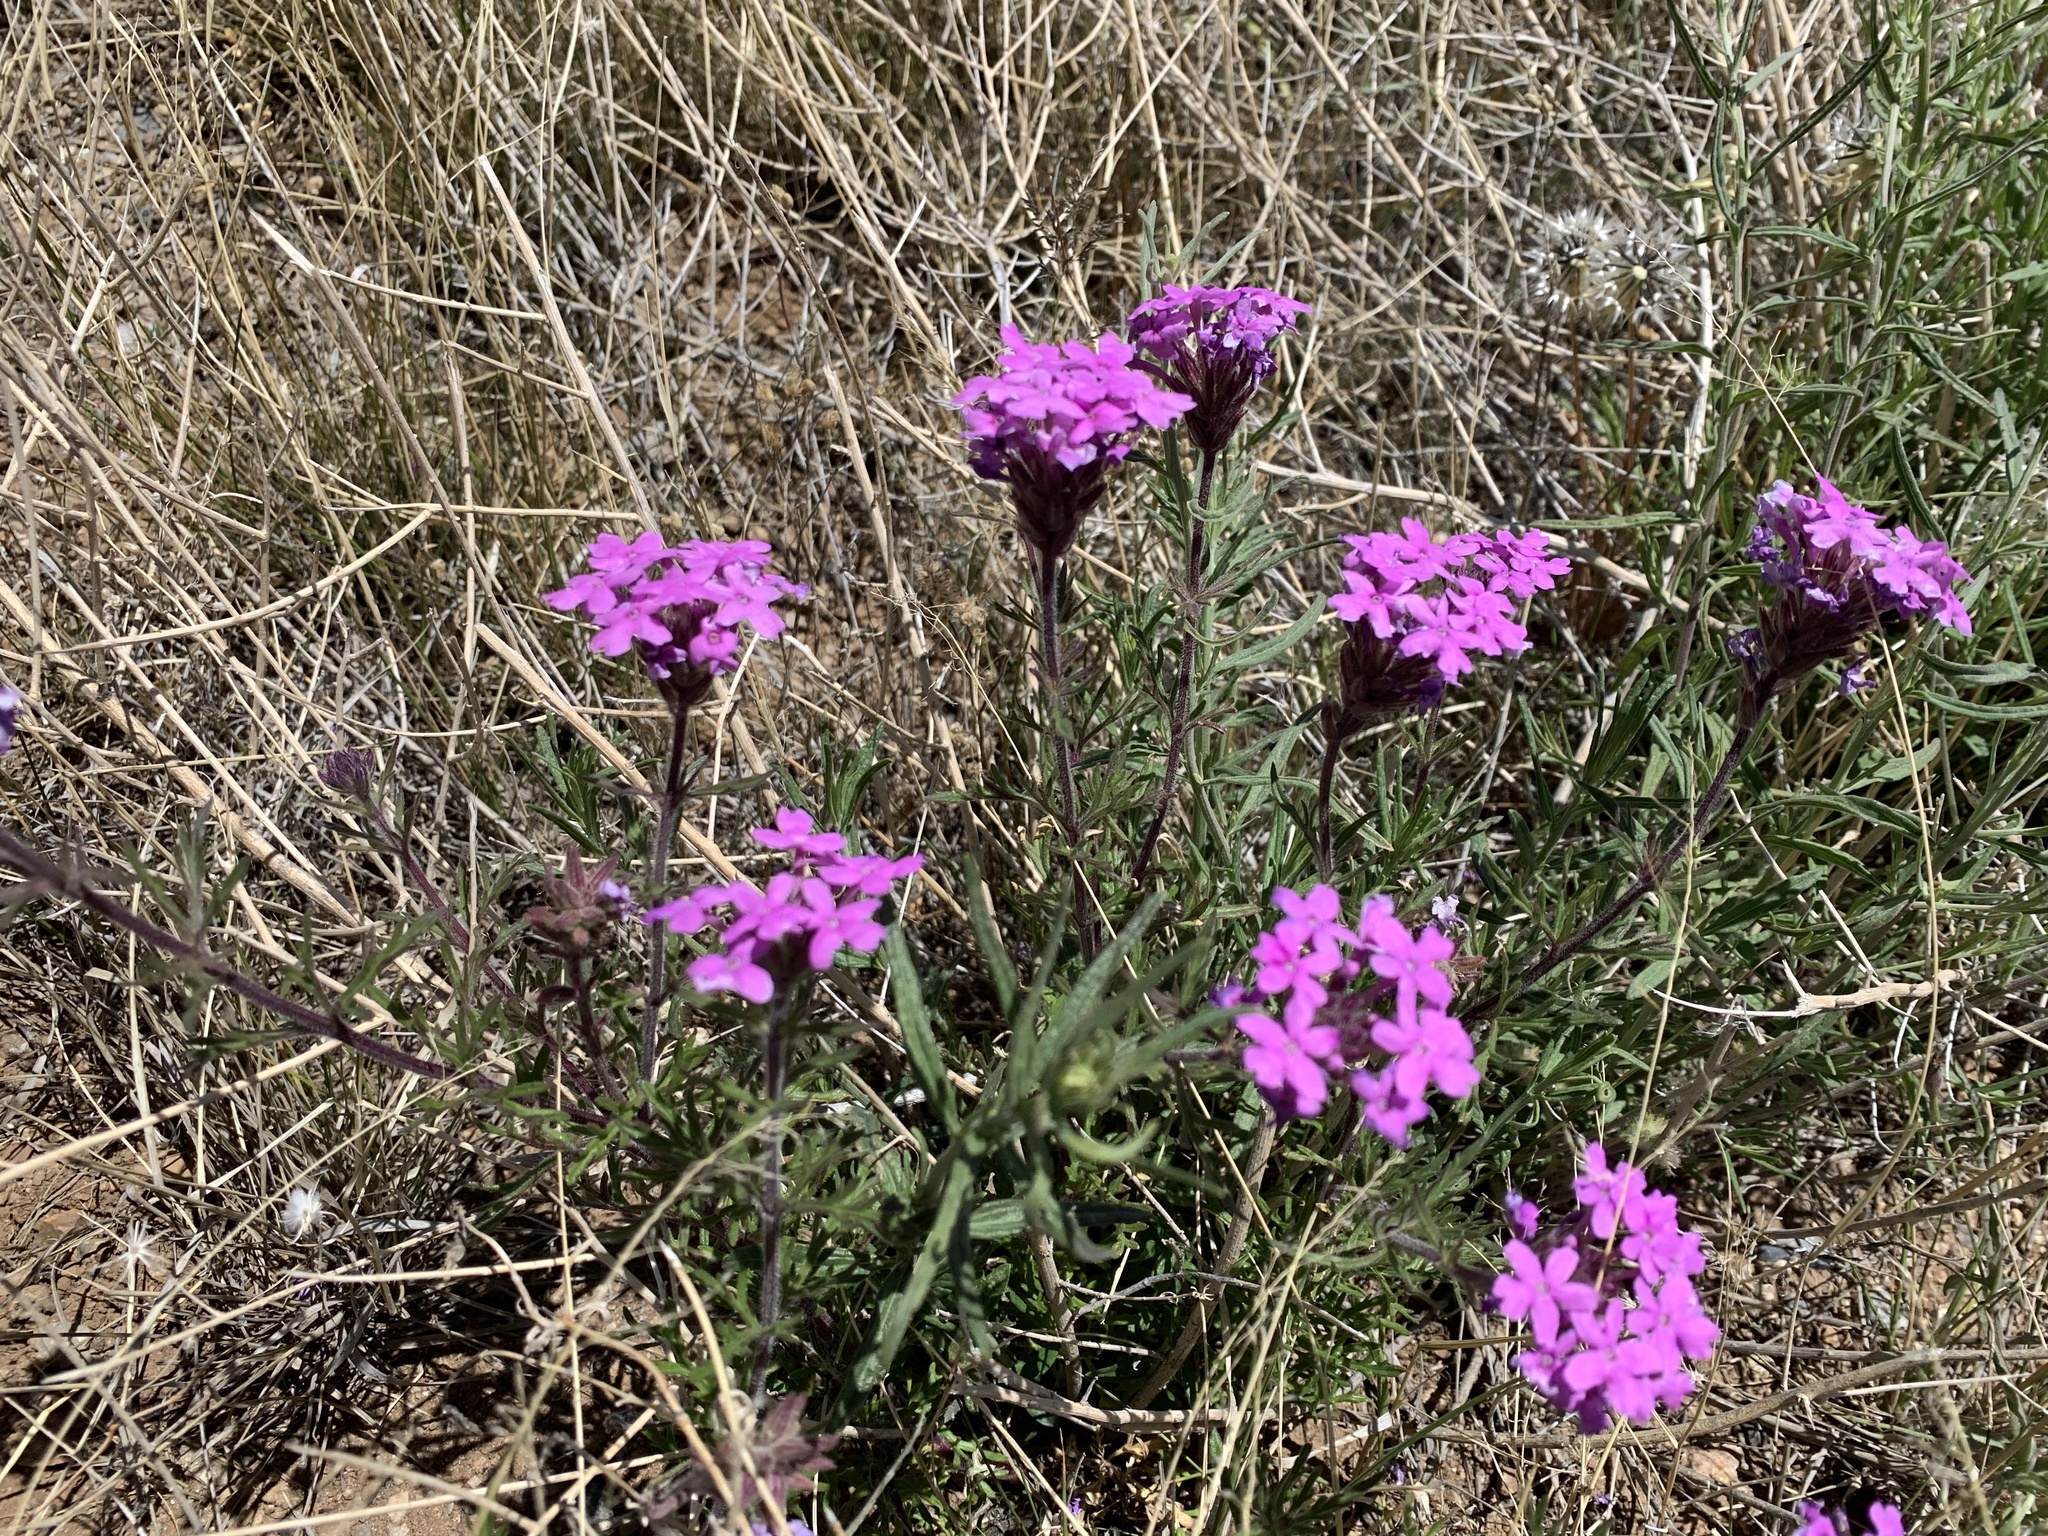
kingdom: Plantae
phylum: Tracheophyta
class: Magnoliopsida
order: Lamiales
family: Verbenaceae
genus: Verbena
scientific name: Verbena bipinnatifida
